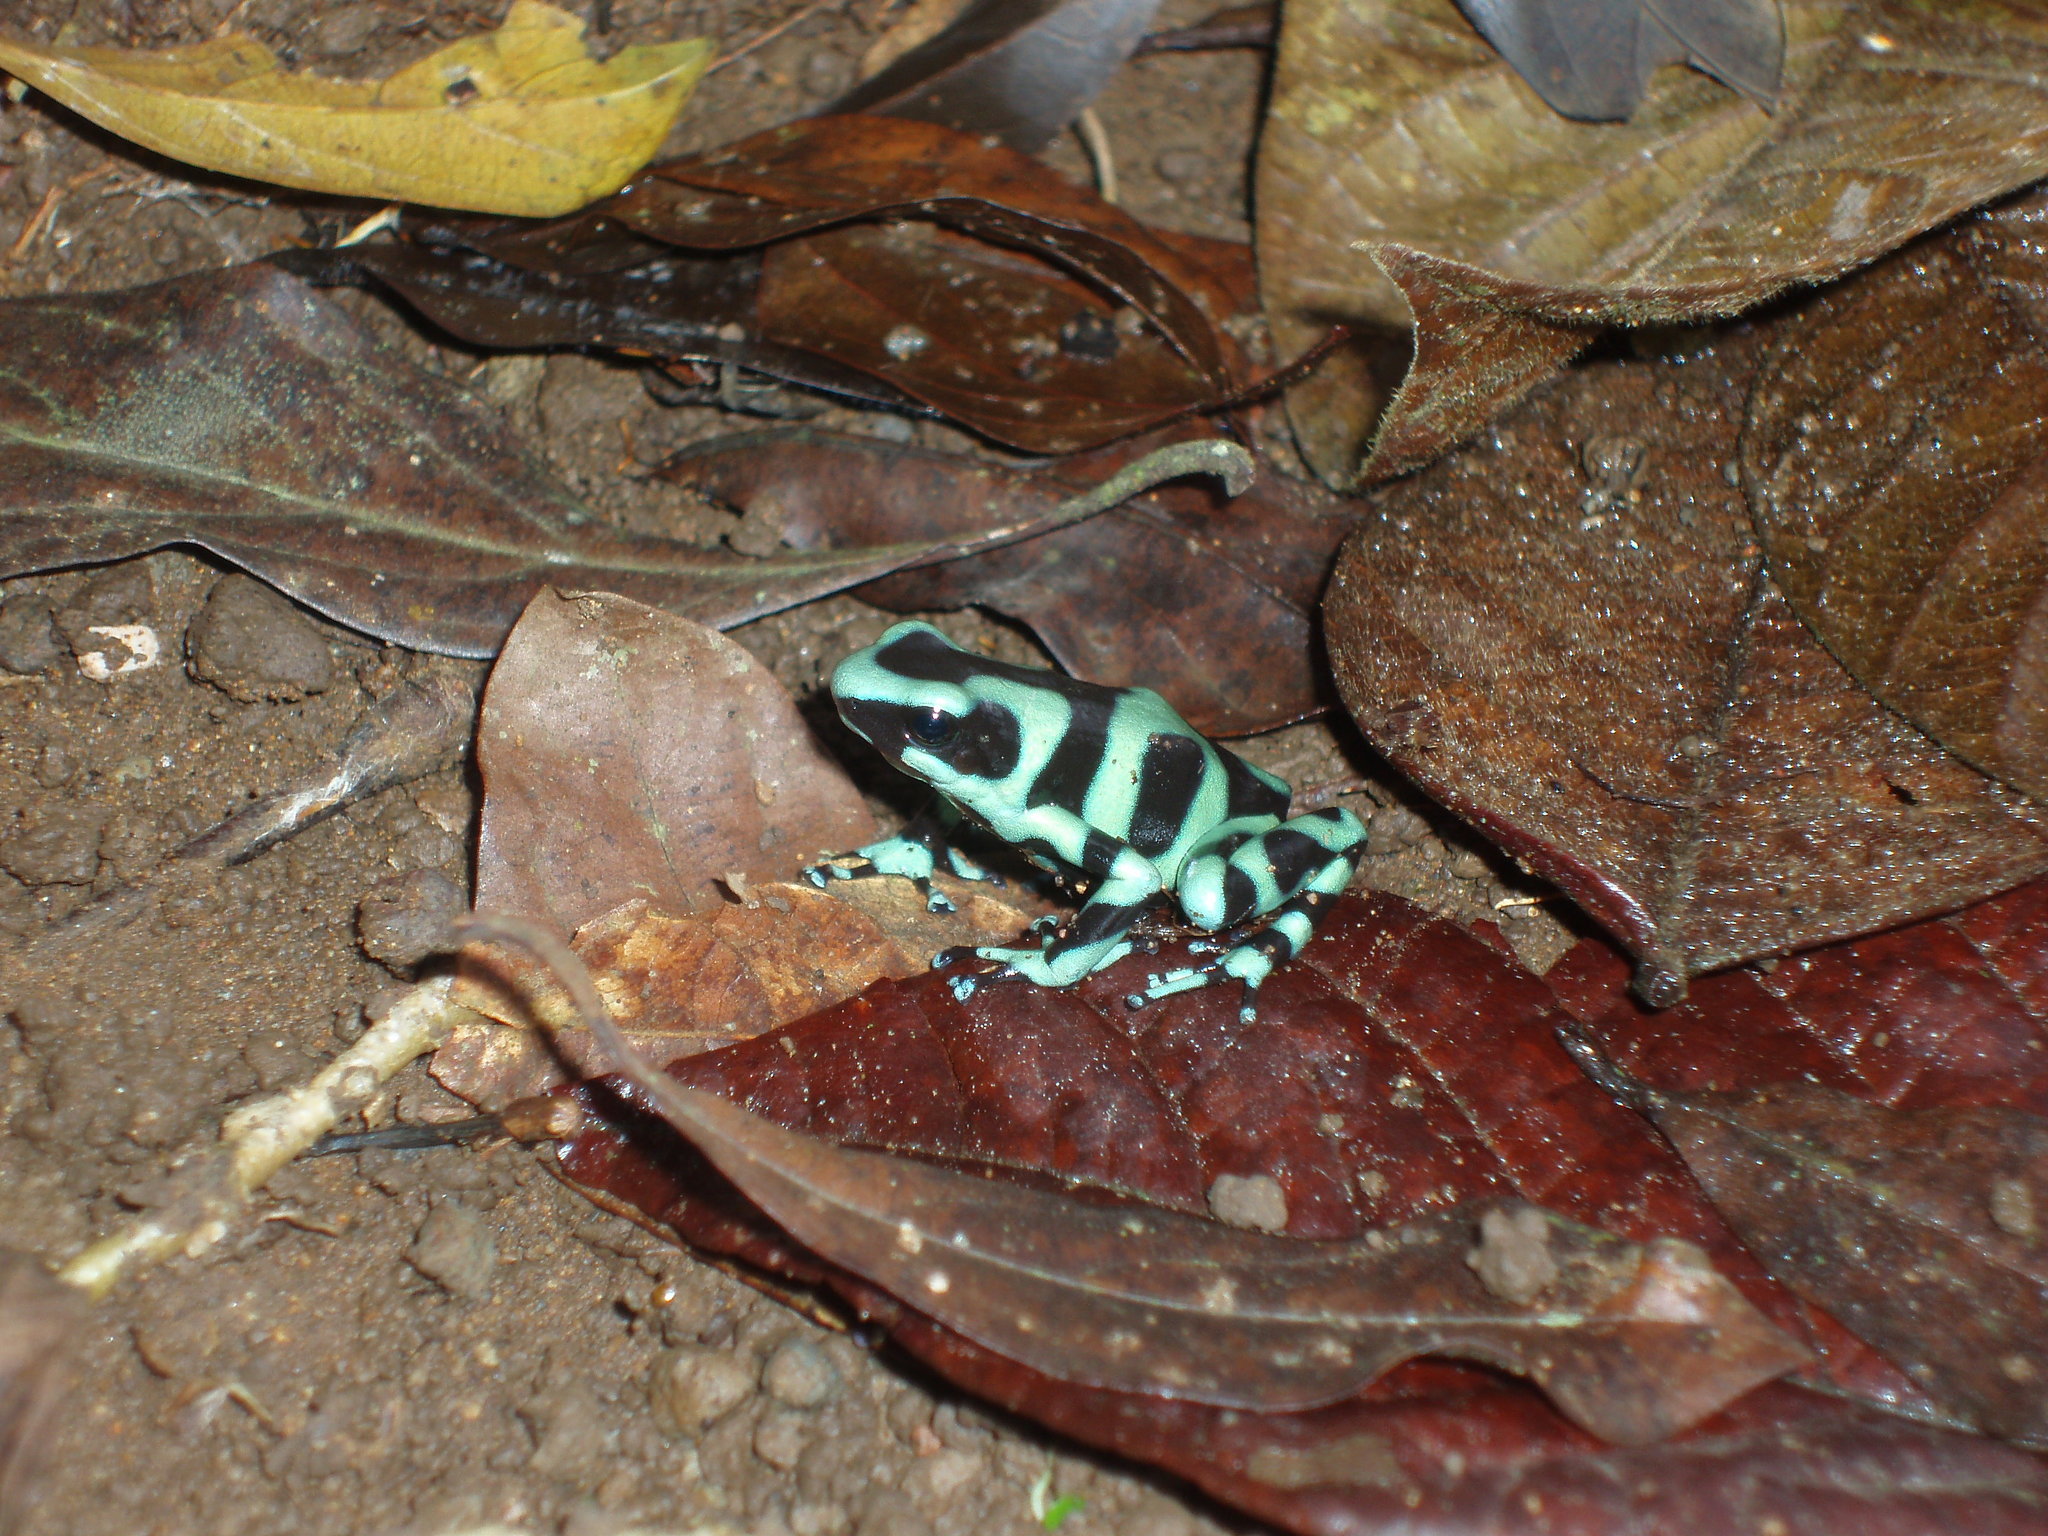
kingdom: Animalia
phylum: Chordata
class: Amphibia
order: Anura
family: Dendrobatidae
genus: Dendrobates
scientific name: Dendrobates auratus
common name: Green and black poison dart frog
